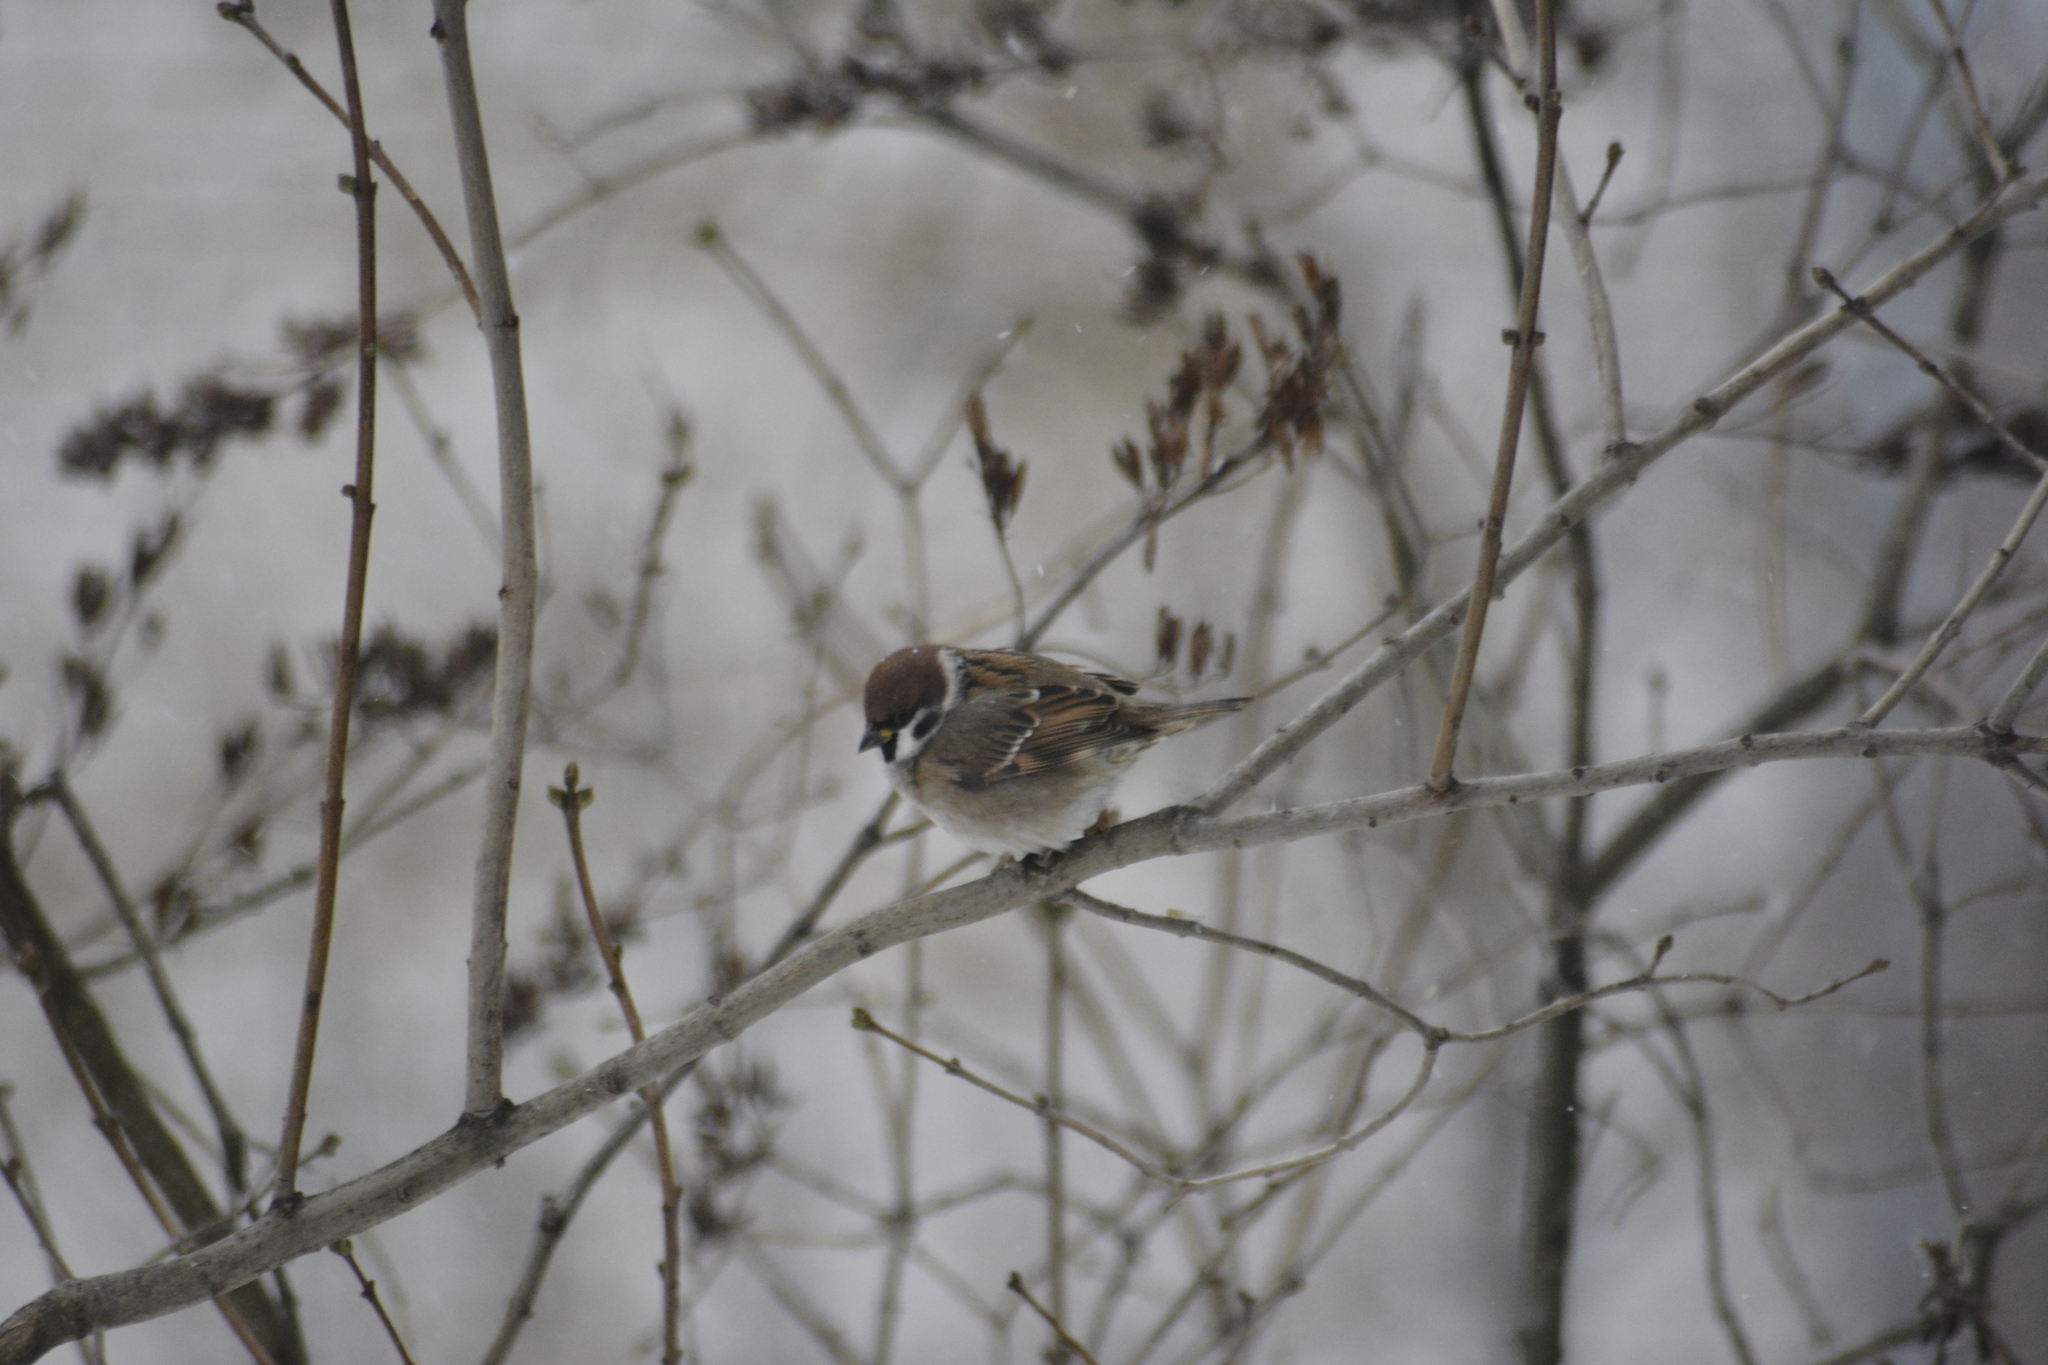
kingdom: Animalia
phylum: Chordata
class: Aves
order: Passeriformes
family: Passeridae
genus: Passer
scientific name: Passer montanus
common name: Eurasian tree sparrow
